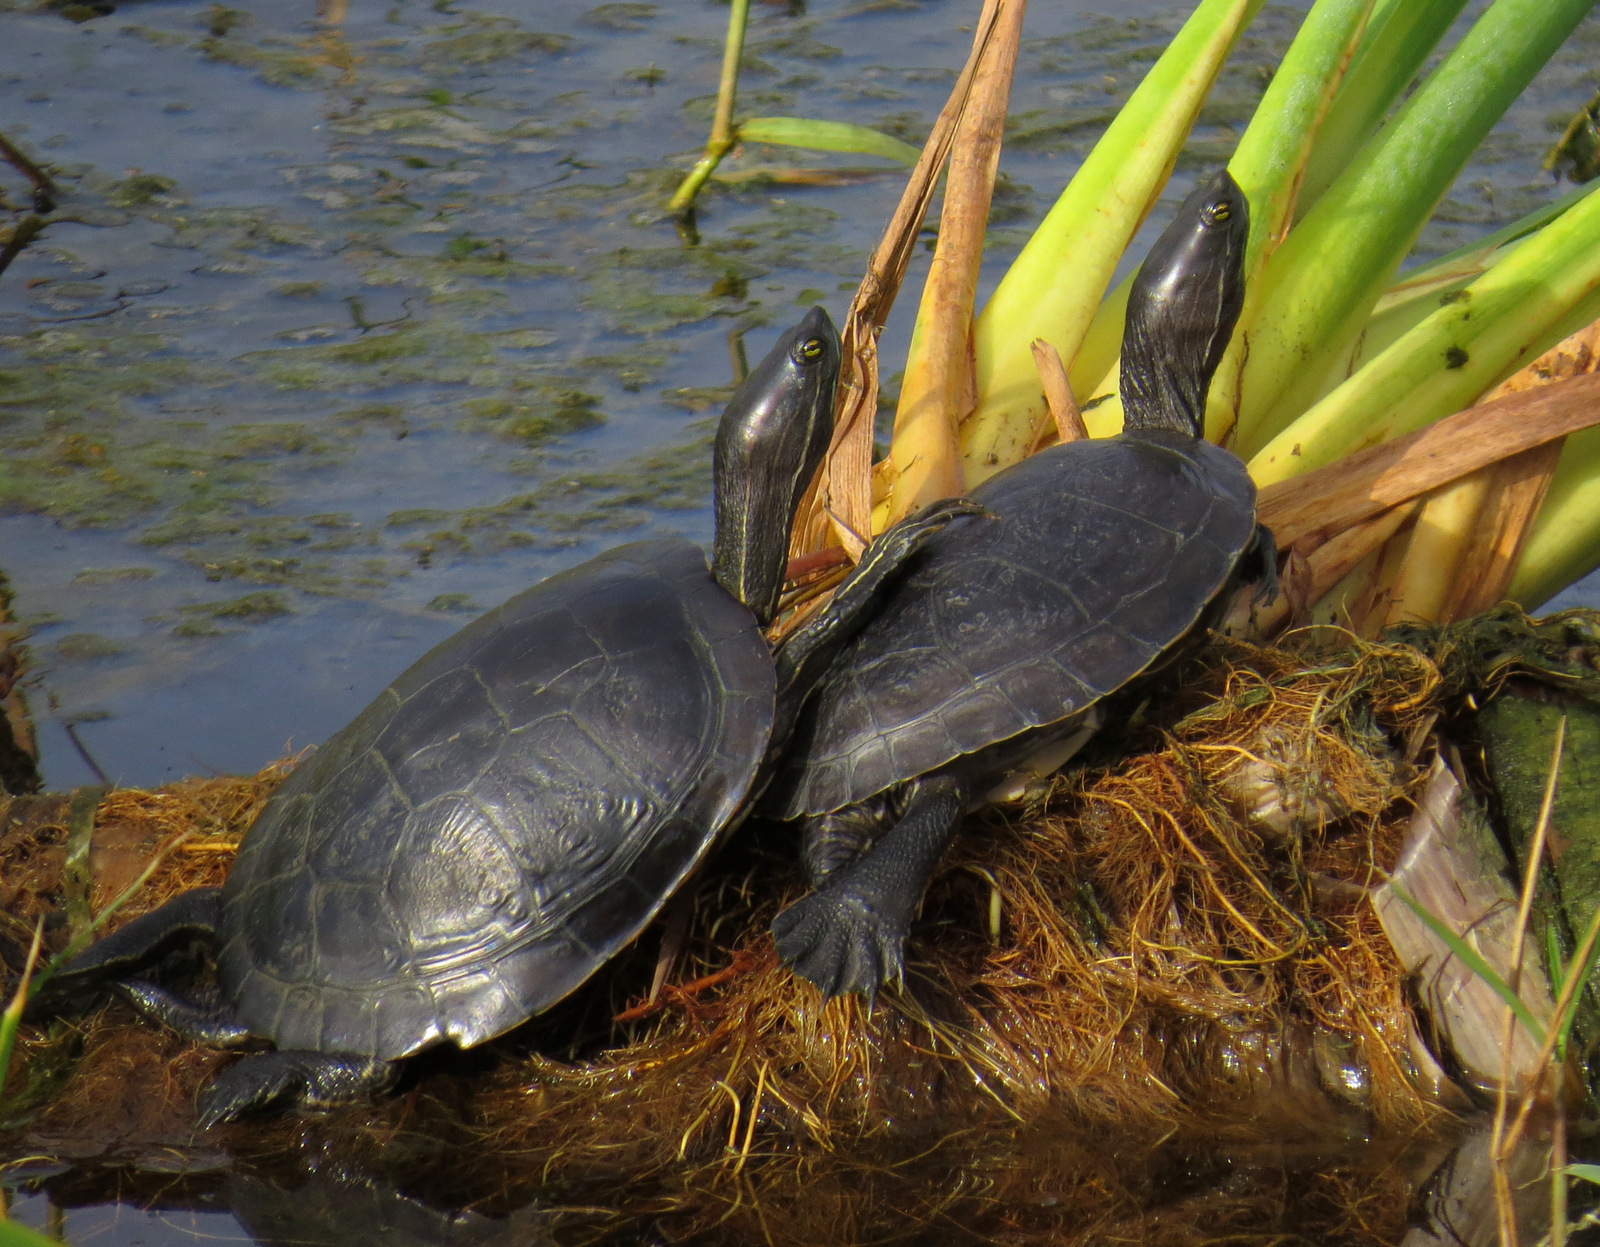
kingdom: Animalia
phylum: Chordata
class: Testudines
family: Emydidae
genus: Trachemys
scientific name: Trachemys stejnegeri
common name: Puerto rican slider
